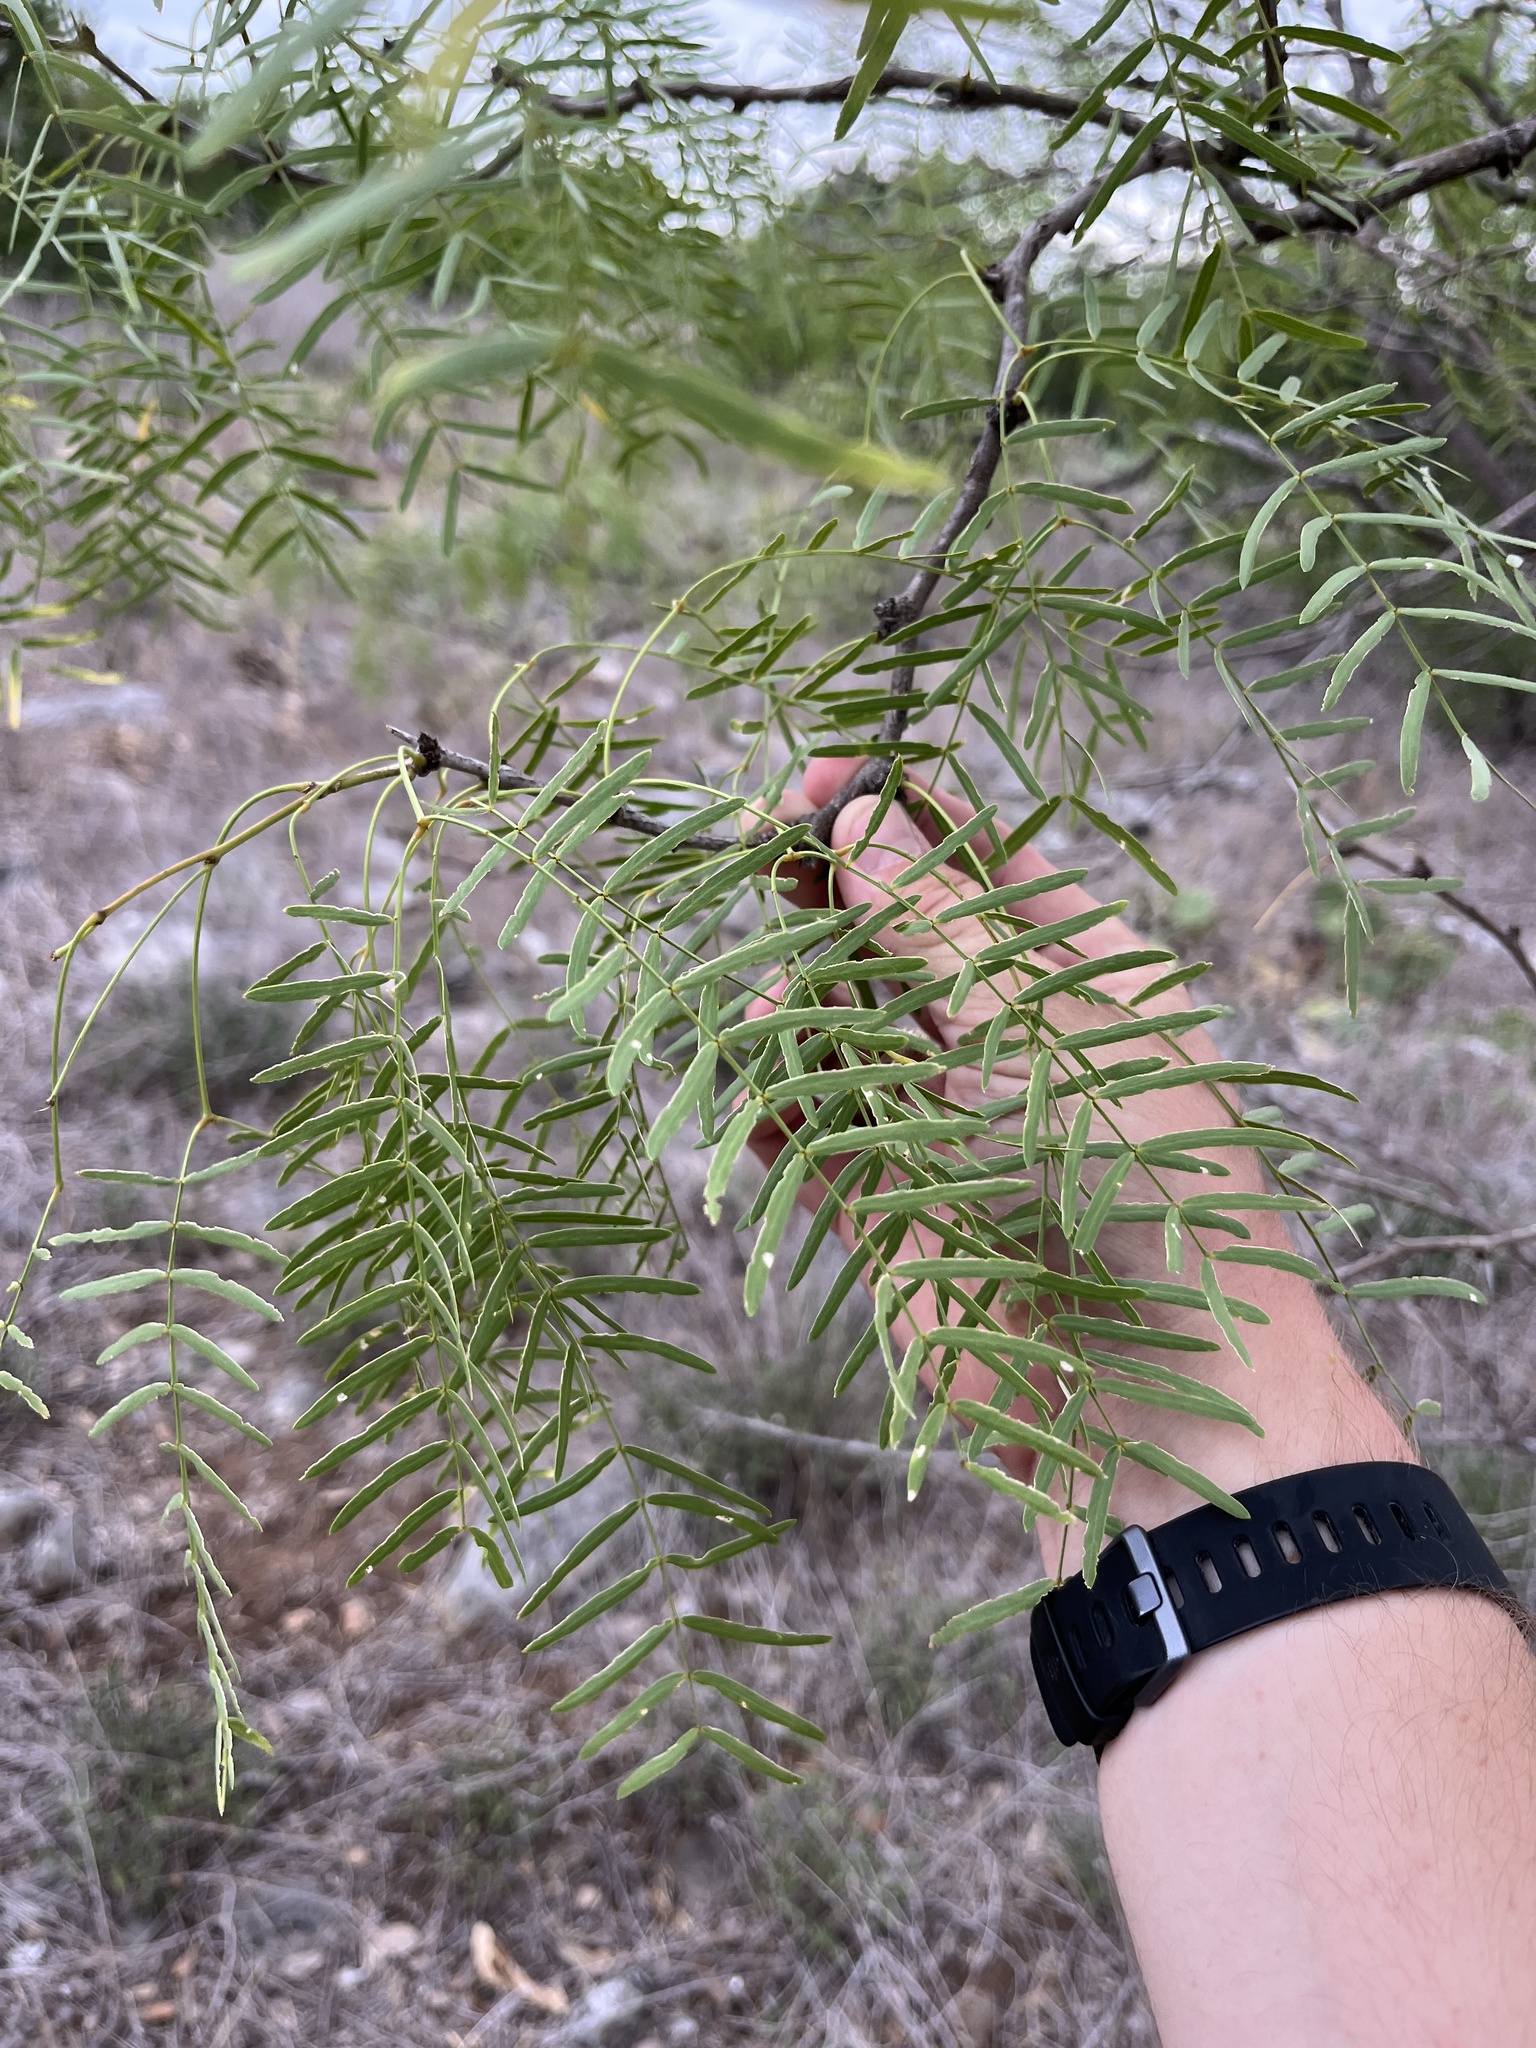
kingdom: Plantae
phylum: Tracheophyta
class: Magnoliopsida
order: Fabales
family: Fabaceae
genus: Prosopis
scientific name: Prosopis glandulosa
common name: Honey mesquite
